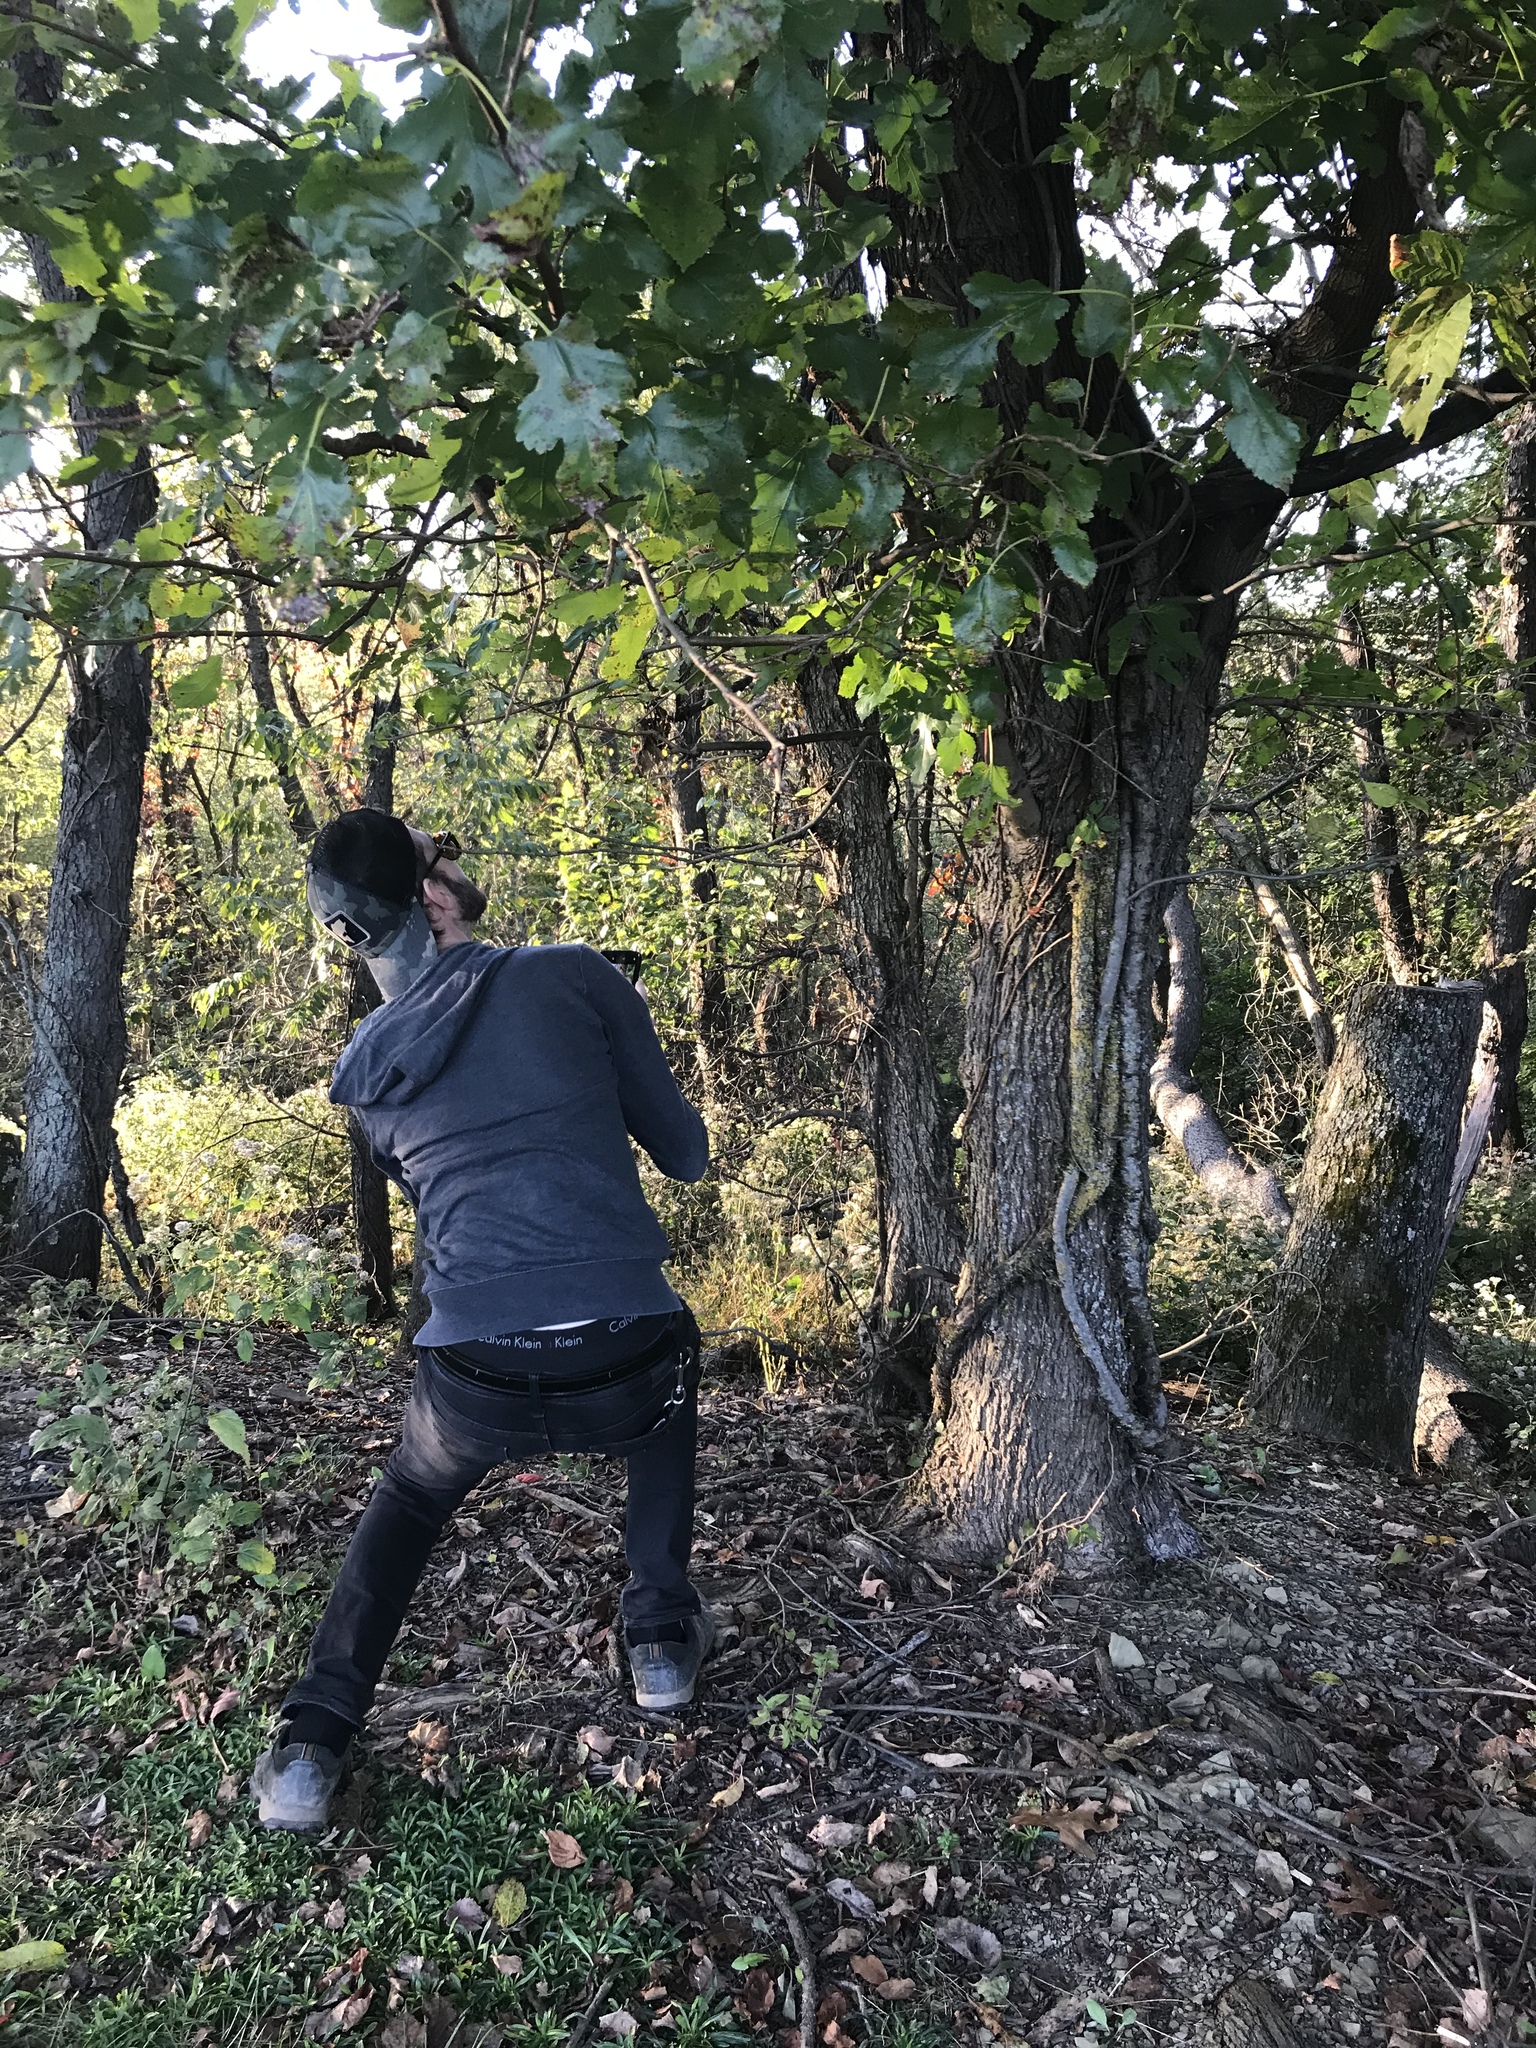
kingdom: Plantae
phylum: Tracheophyta
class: Magnoliopsida
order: Rosales
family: Moraceae
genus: Morus
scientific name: Morus alba
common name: White mulberry
